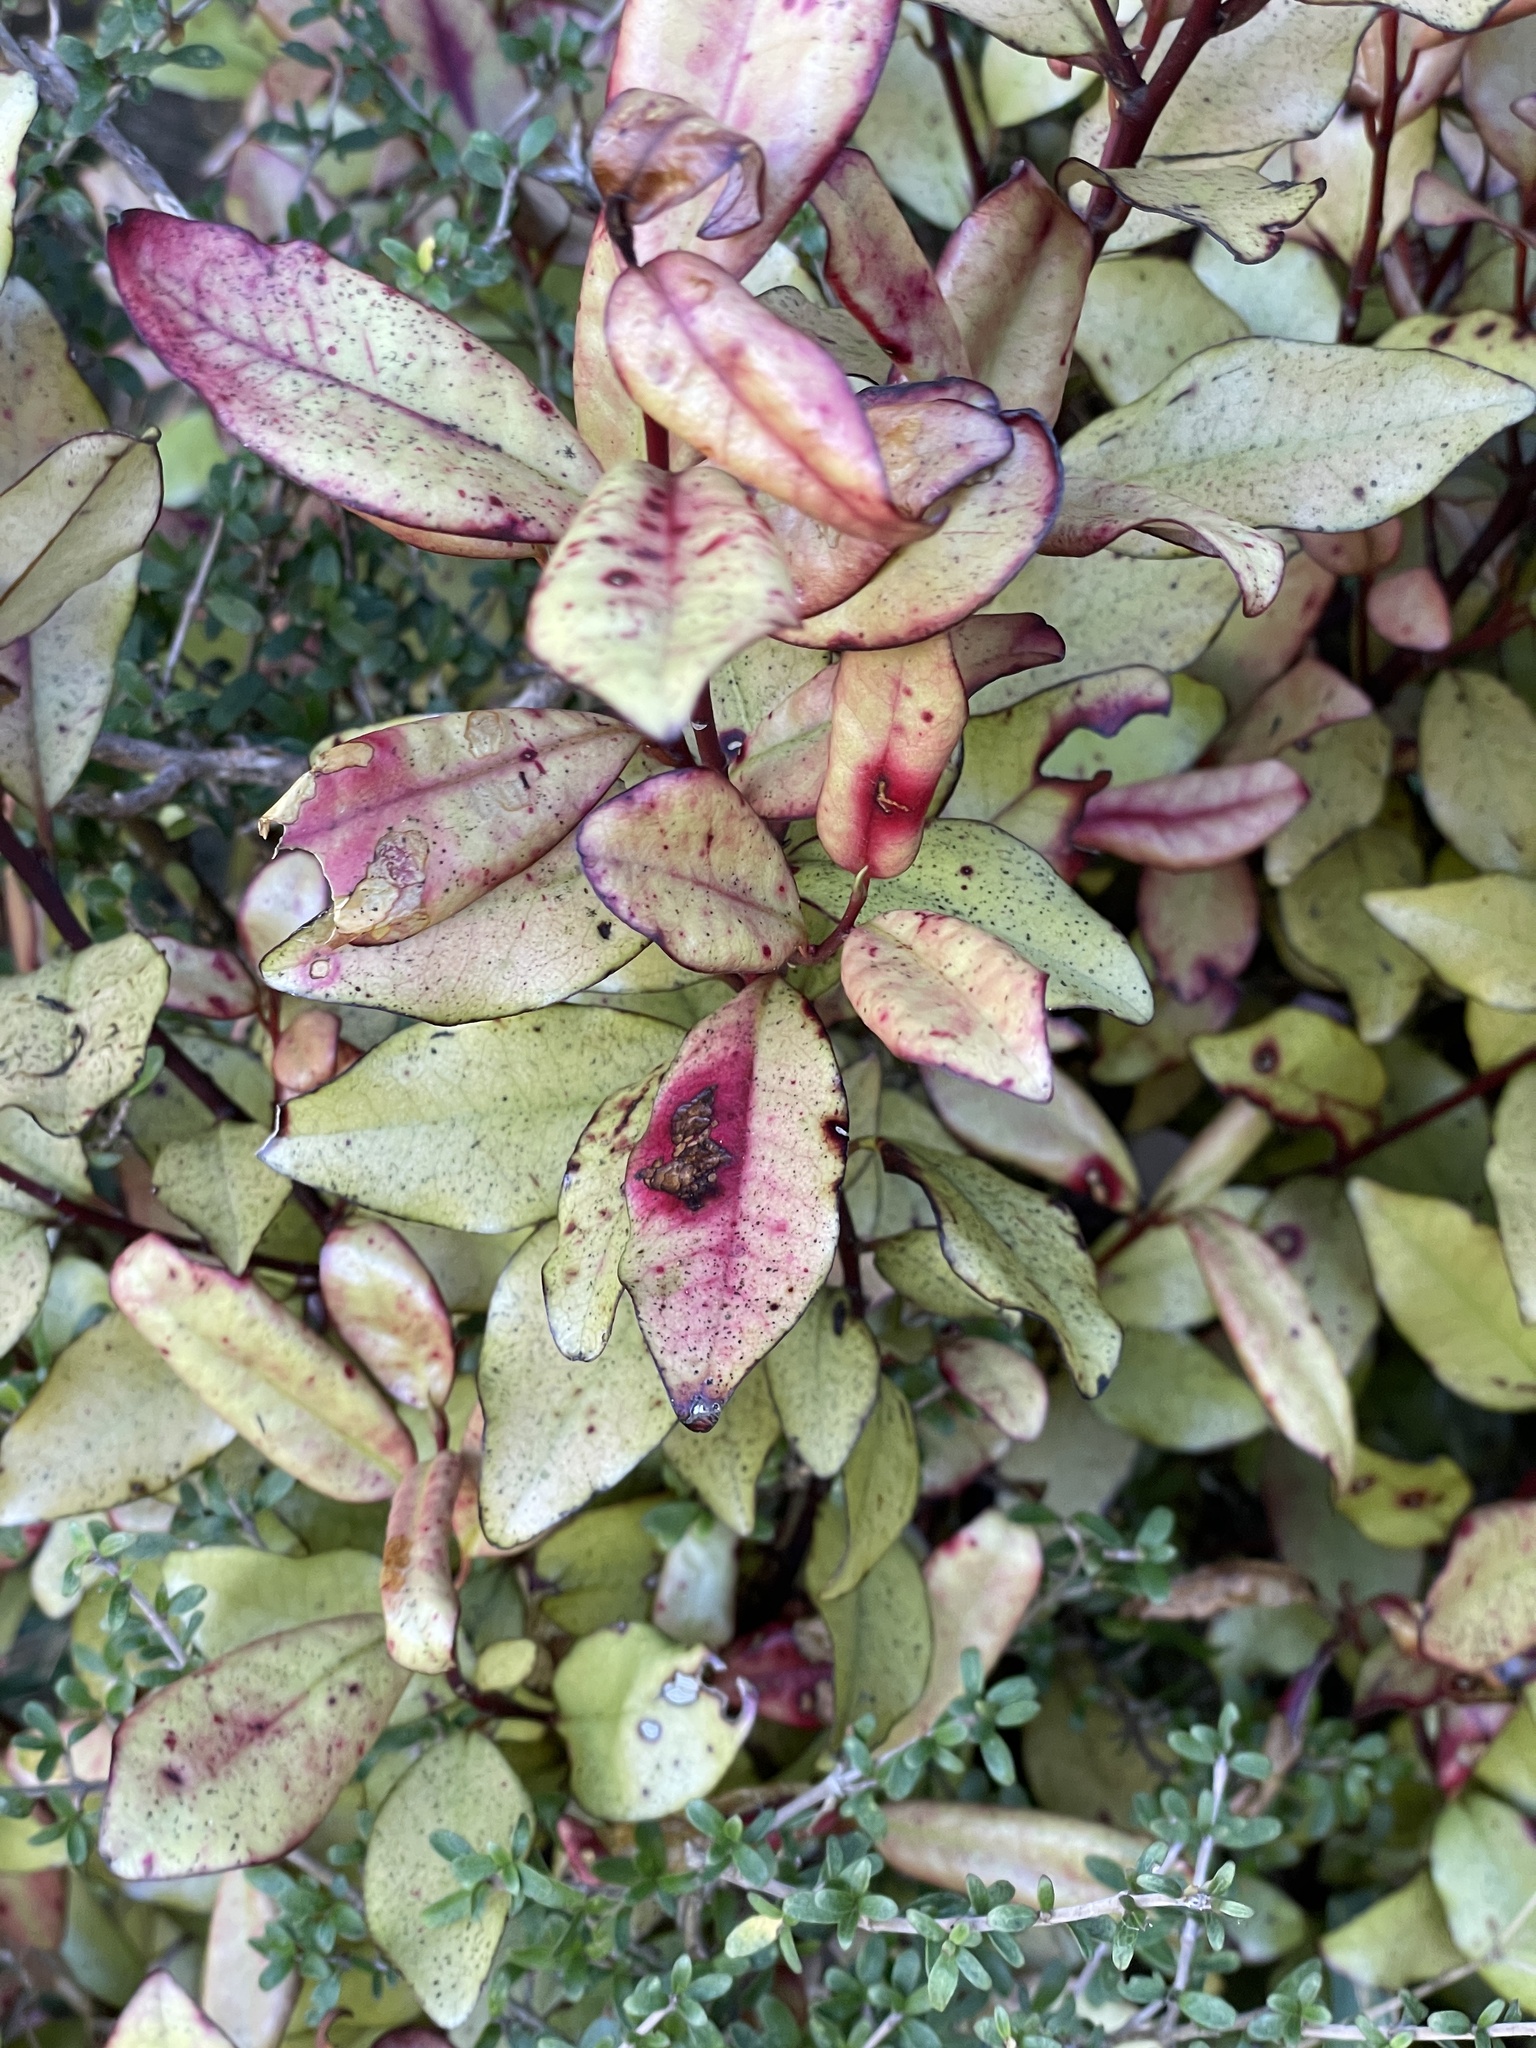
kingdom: Plantae
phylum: Tracheophyta
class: Magnoliopsida
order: Canellales
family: Winteraceae
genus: Pseudowintera
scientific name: Pseudowintera colorata
